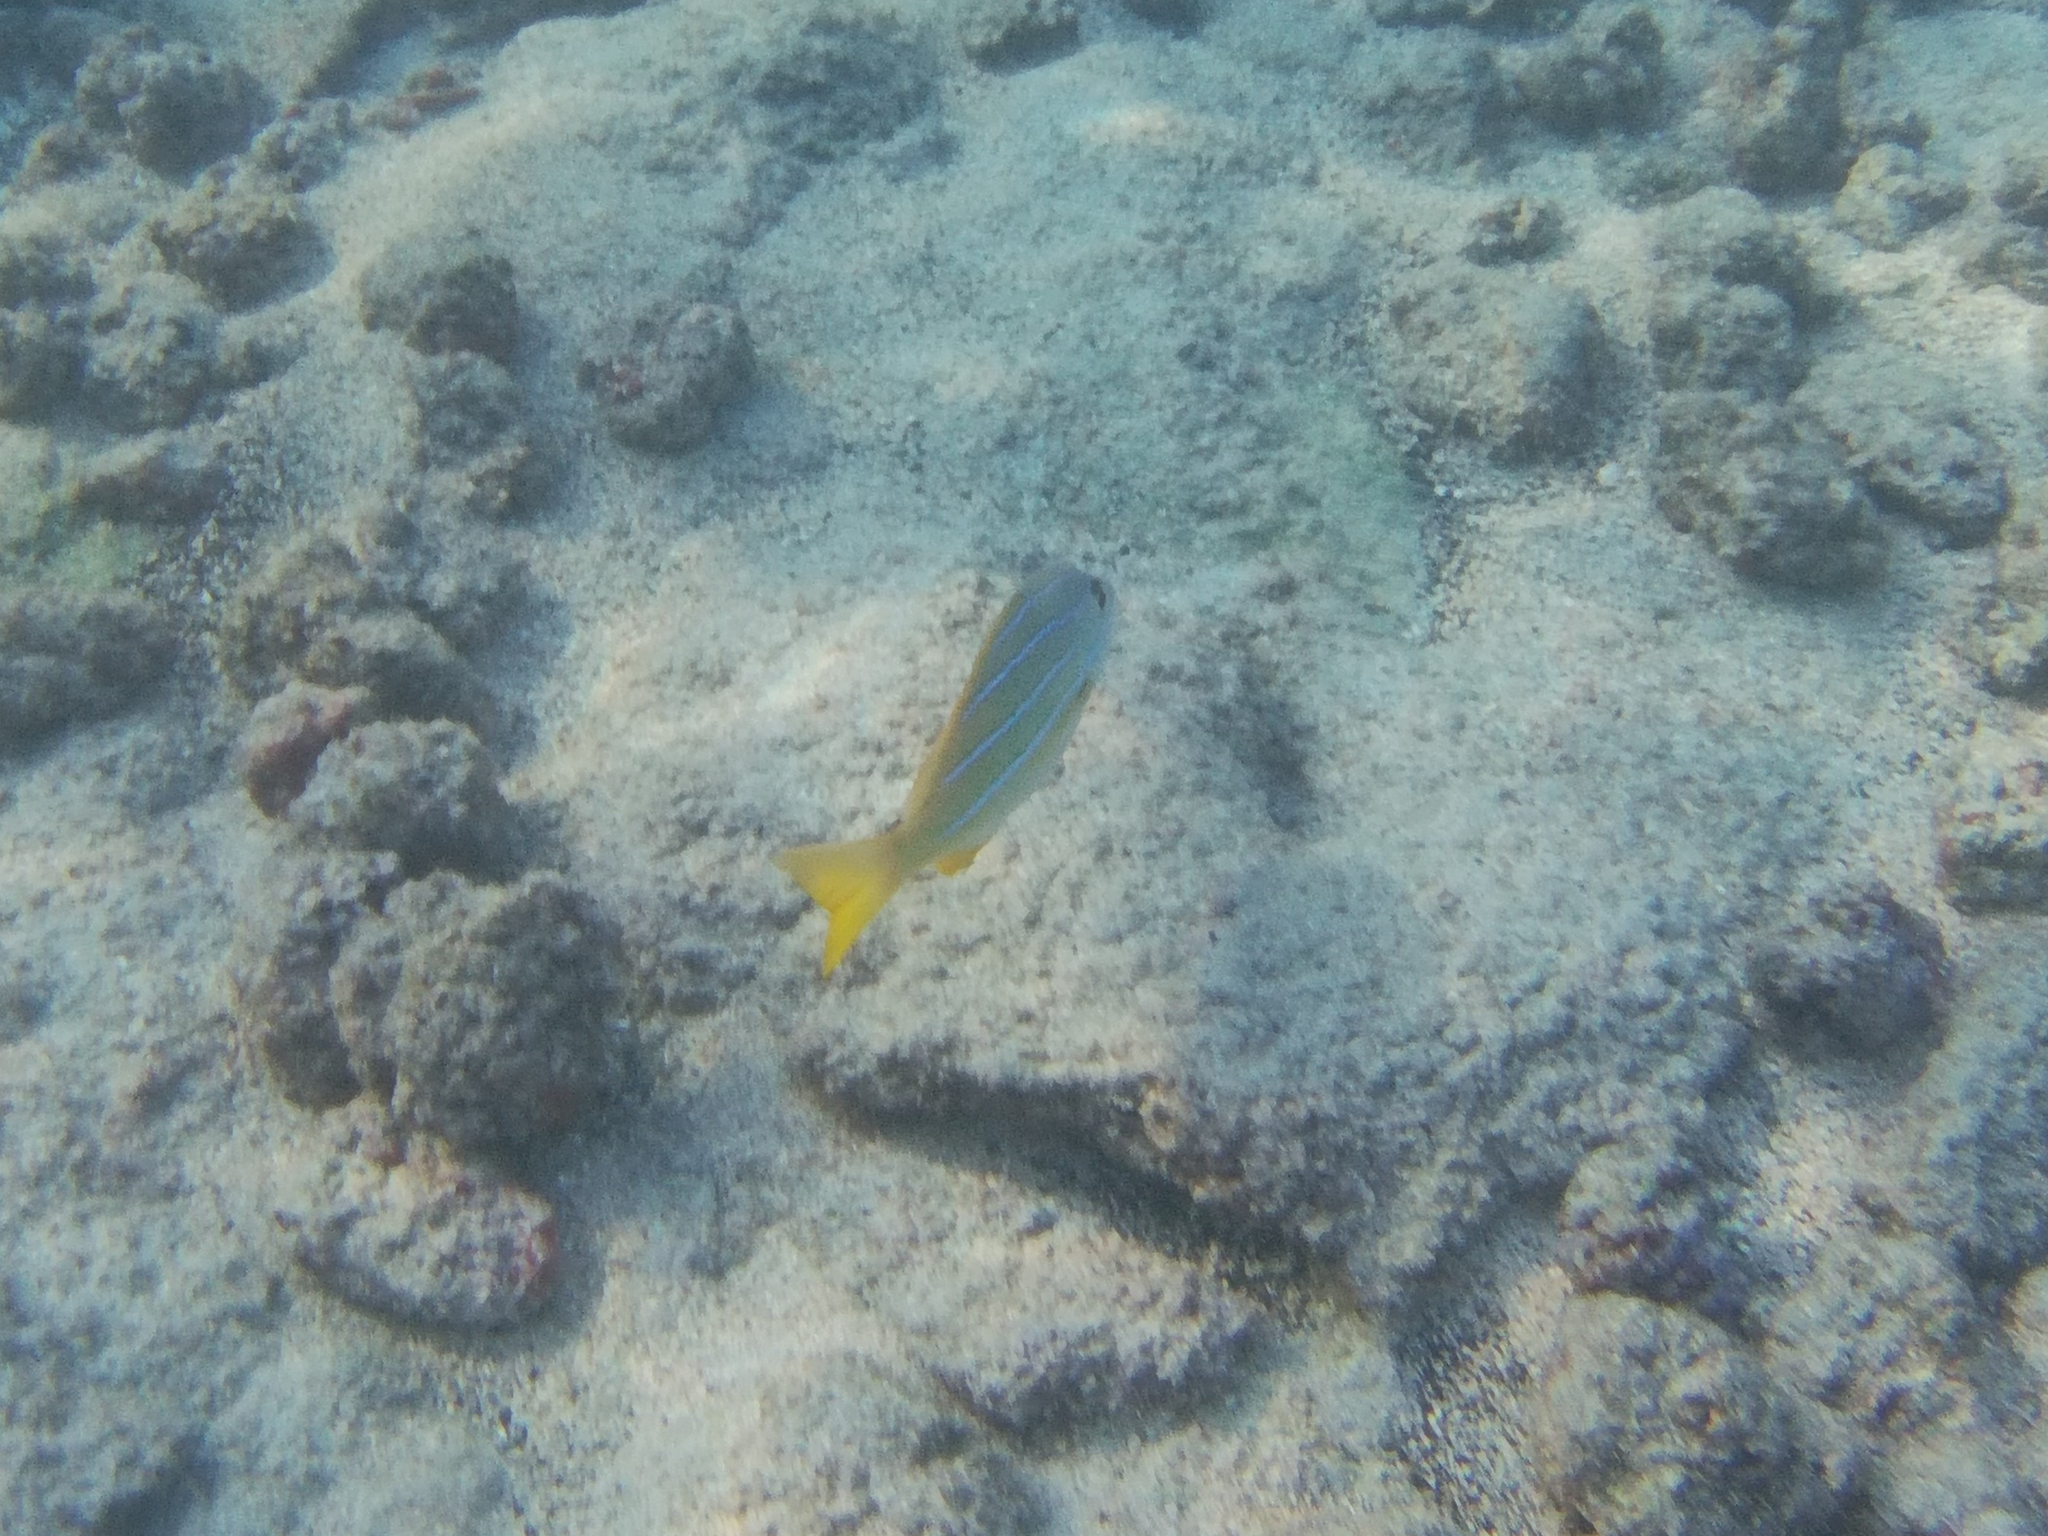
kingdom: Animalia
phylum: Chordata
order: Perciformes
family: Lutjanidae
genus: Lutjanus
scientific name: Lutjanus kasmira
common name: Common bluestripe snapper
